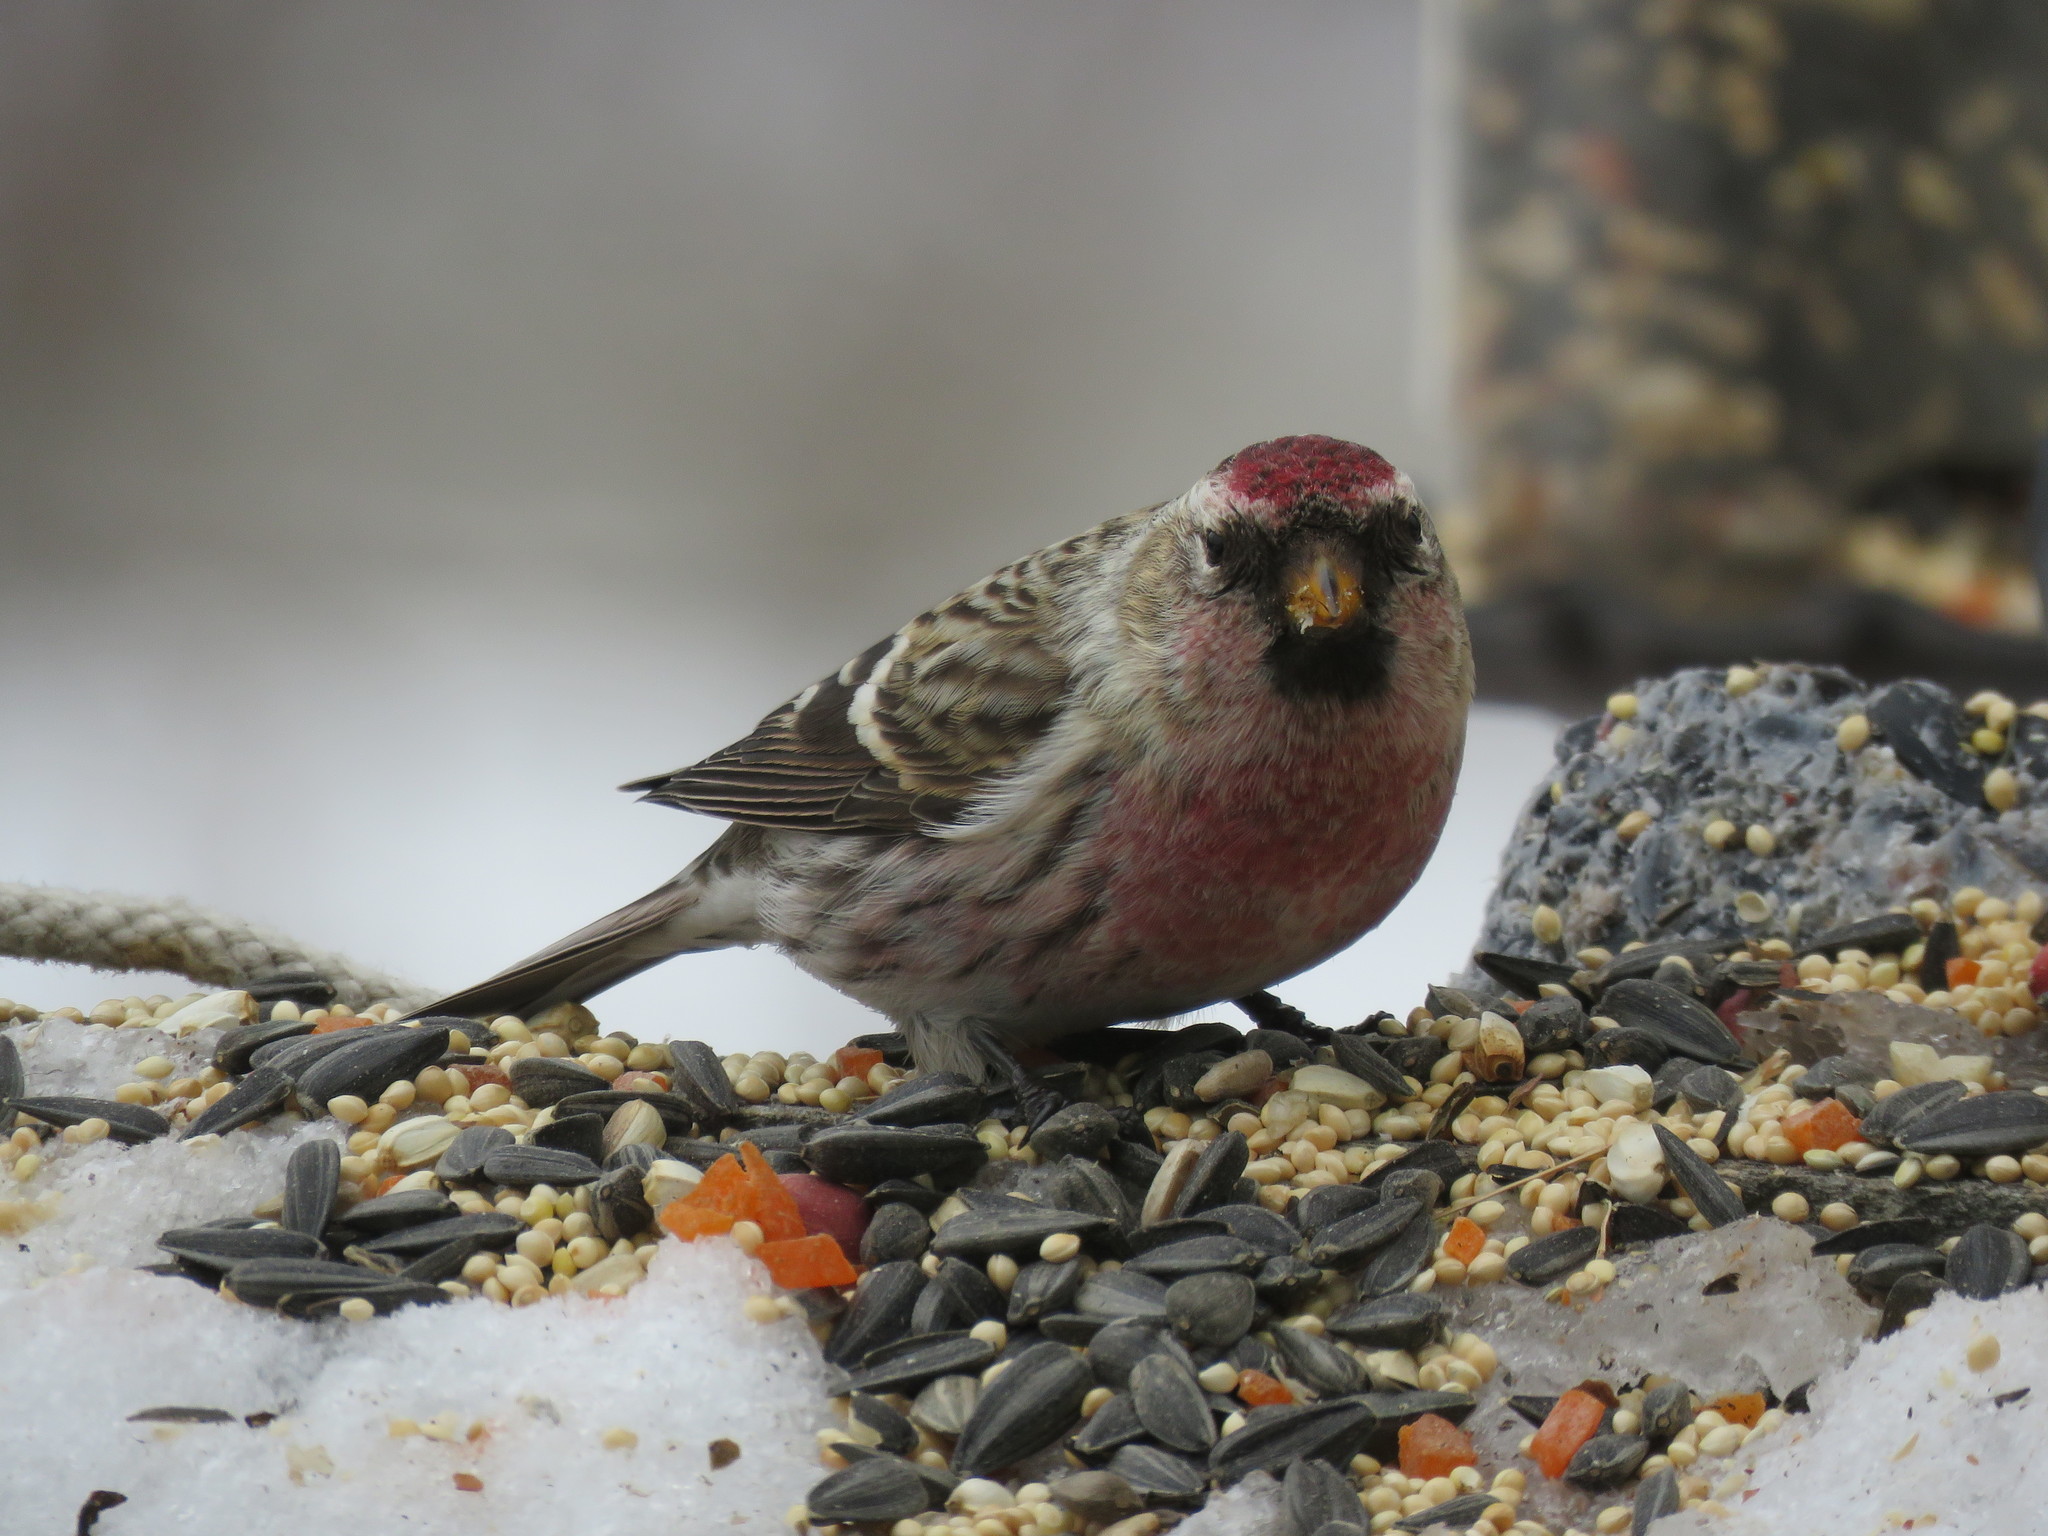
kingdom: Animalia
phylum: Chordata
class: Aves
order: Passeriformes
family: Fringillidae
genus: Acanthis
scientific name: Acanthis flammea
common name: Common redpoll
